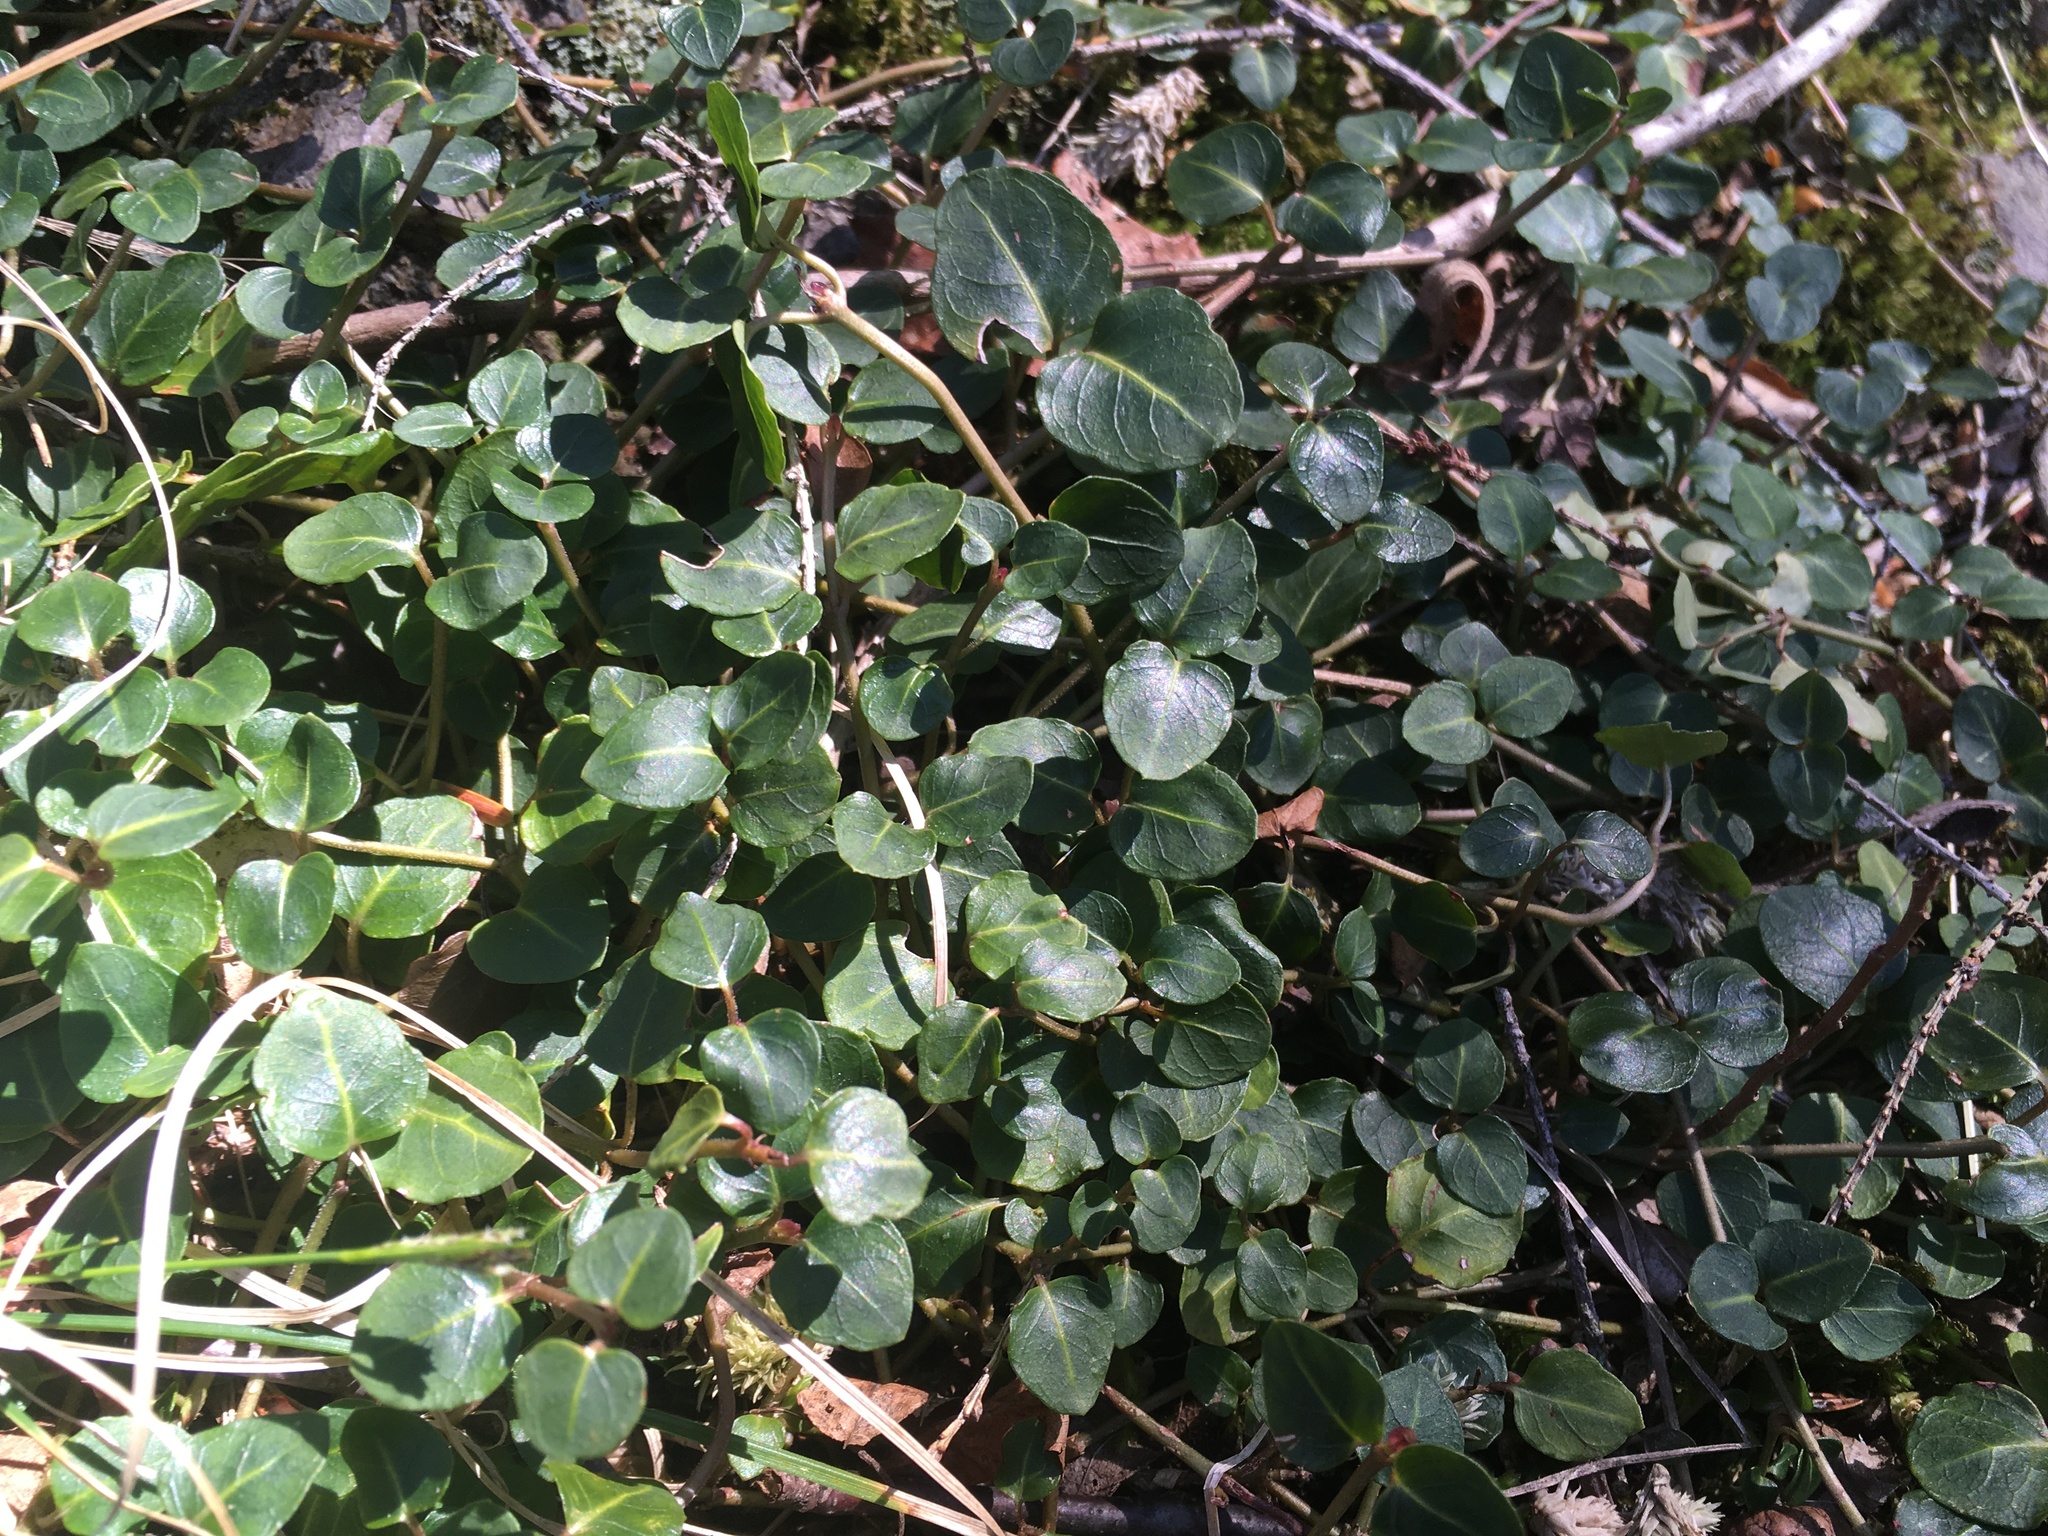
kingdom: Plantae
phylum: Tracheophyta
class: Magnoliopsida
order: Gentianales
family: Rubiaceae
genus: Mitchella
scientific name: Mitchella repens
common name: Partridge-berry
